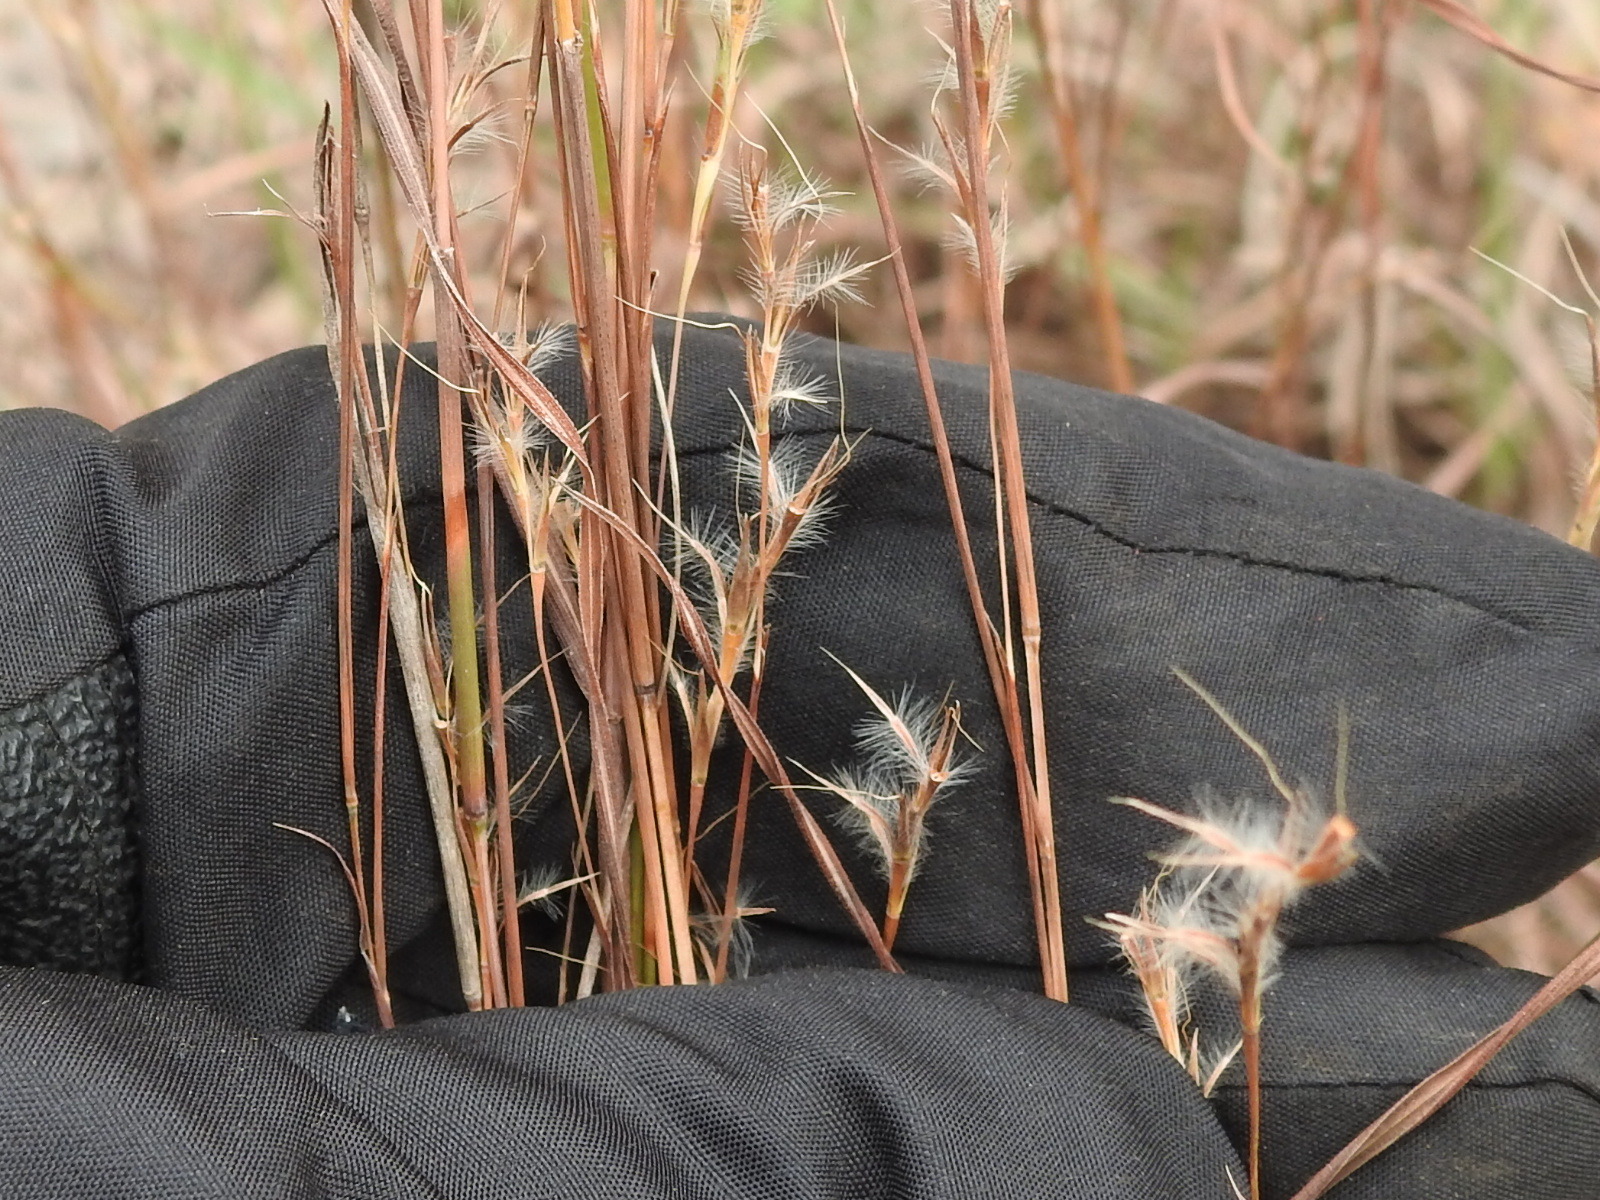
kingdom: Plantae
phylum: Tracheophyta
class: Liliopsida
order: Poales
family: Poaceae
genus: Schizachyrium
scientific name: Schizachyrium scoparium
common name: Little bluestem
